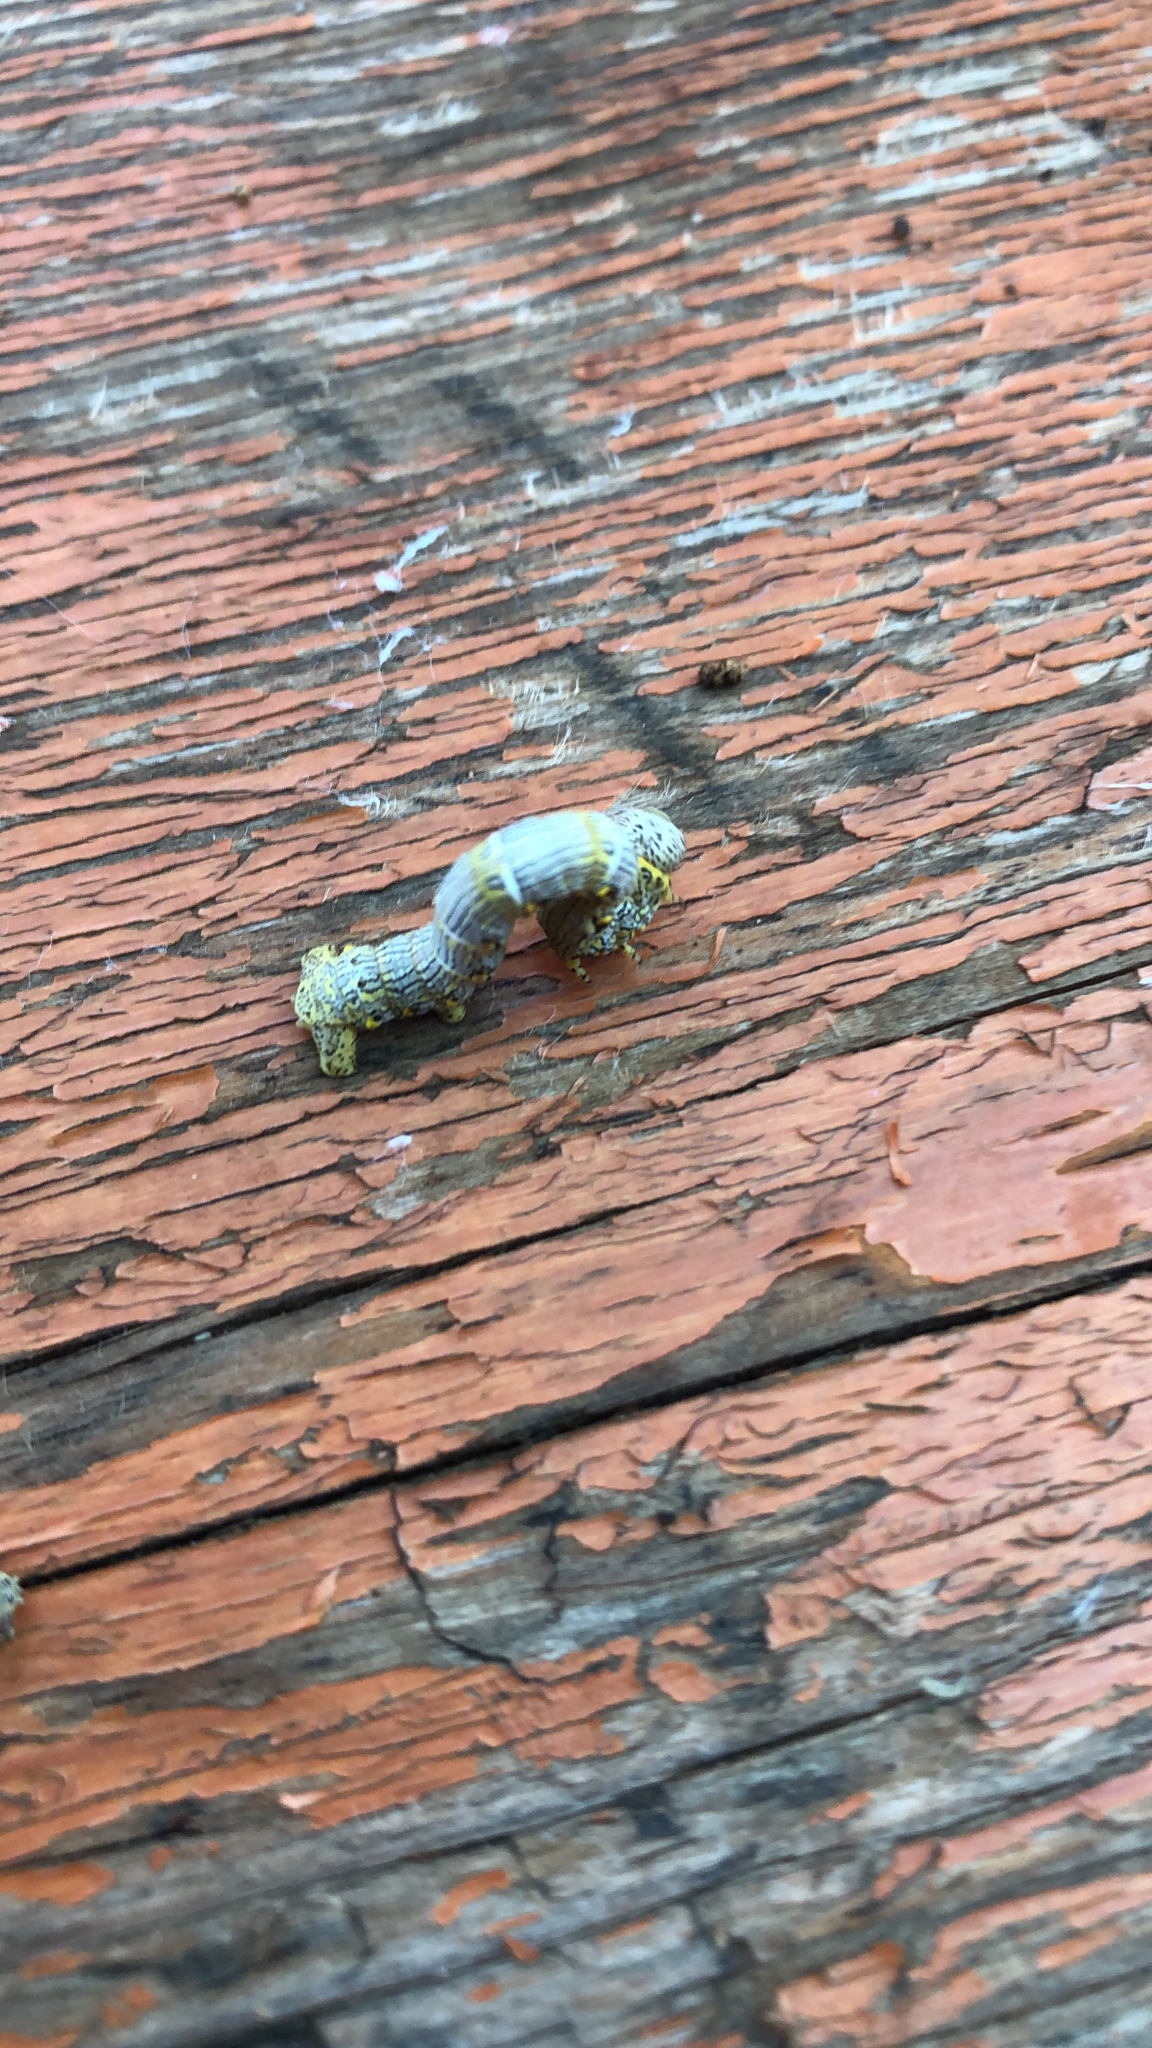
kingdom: Animalia
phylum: Arthropoda
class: Insecta
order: Lepidoptera
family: Geometridae
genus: Lycia
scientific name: Lycia ypsilon
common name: Wooly gray
